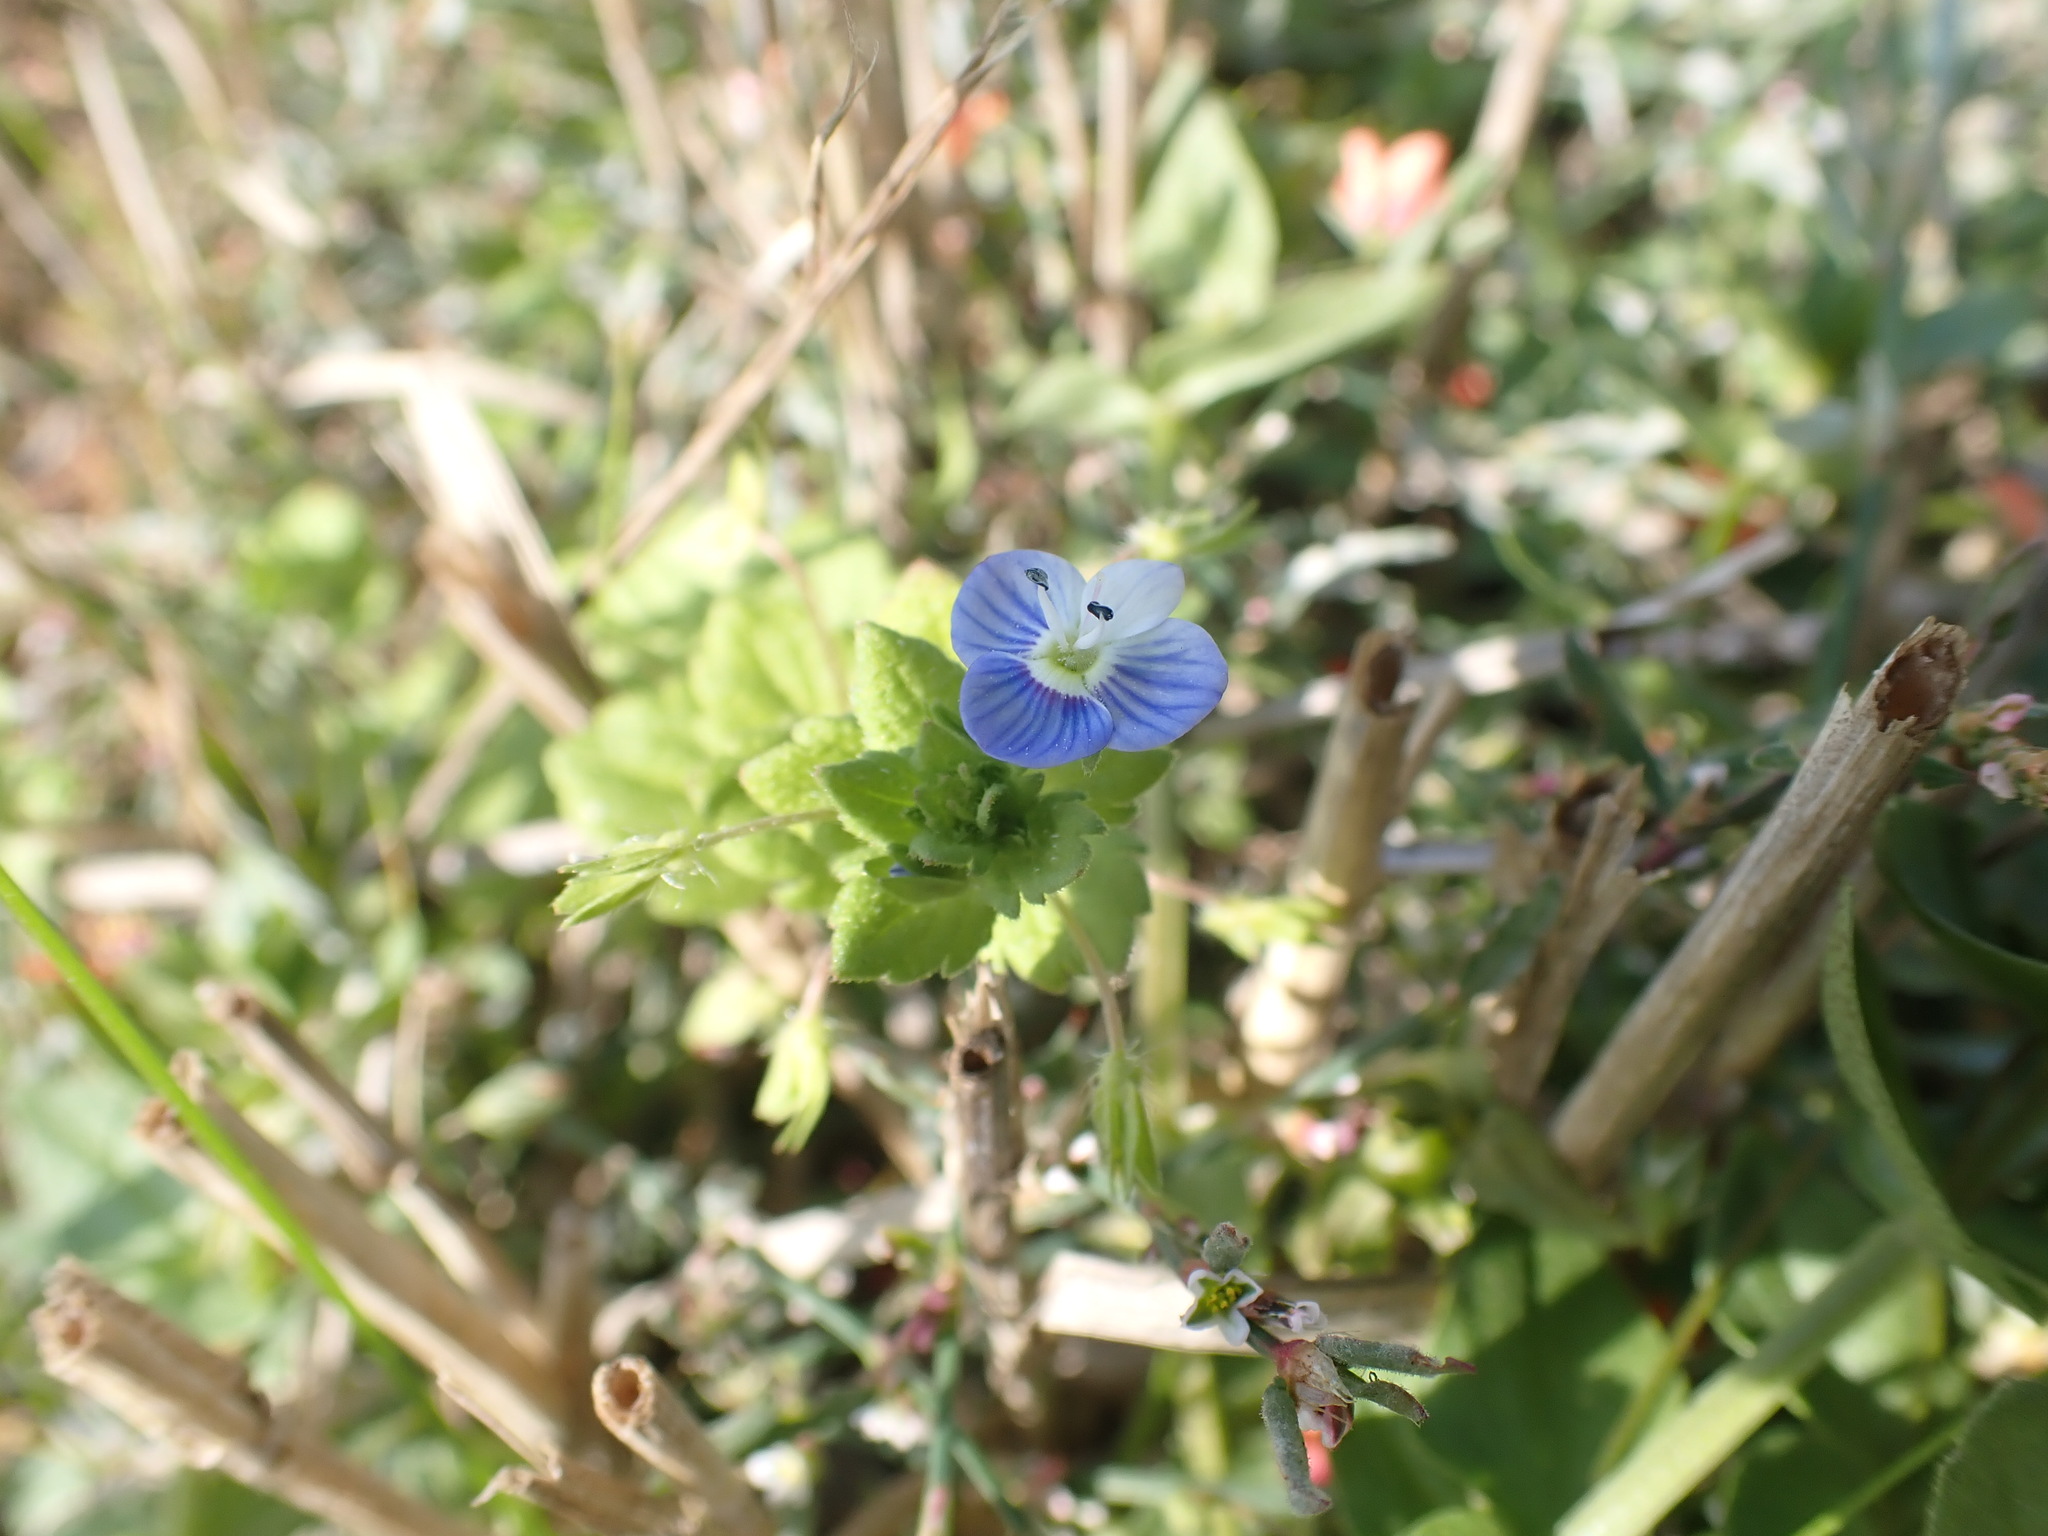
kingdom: Plantae
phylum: Tracheophyta
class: Magnoliopsida
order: Lamiales
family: Plantaginaceae
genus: Veronica
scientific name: Veronica persica
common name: Common field-speedwell
